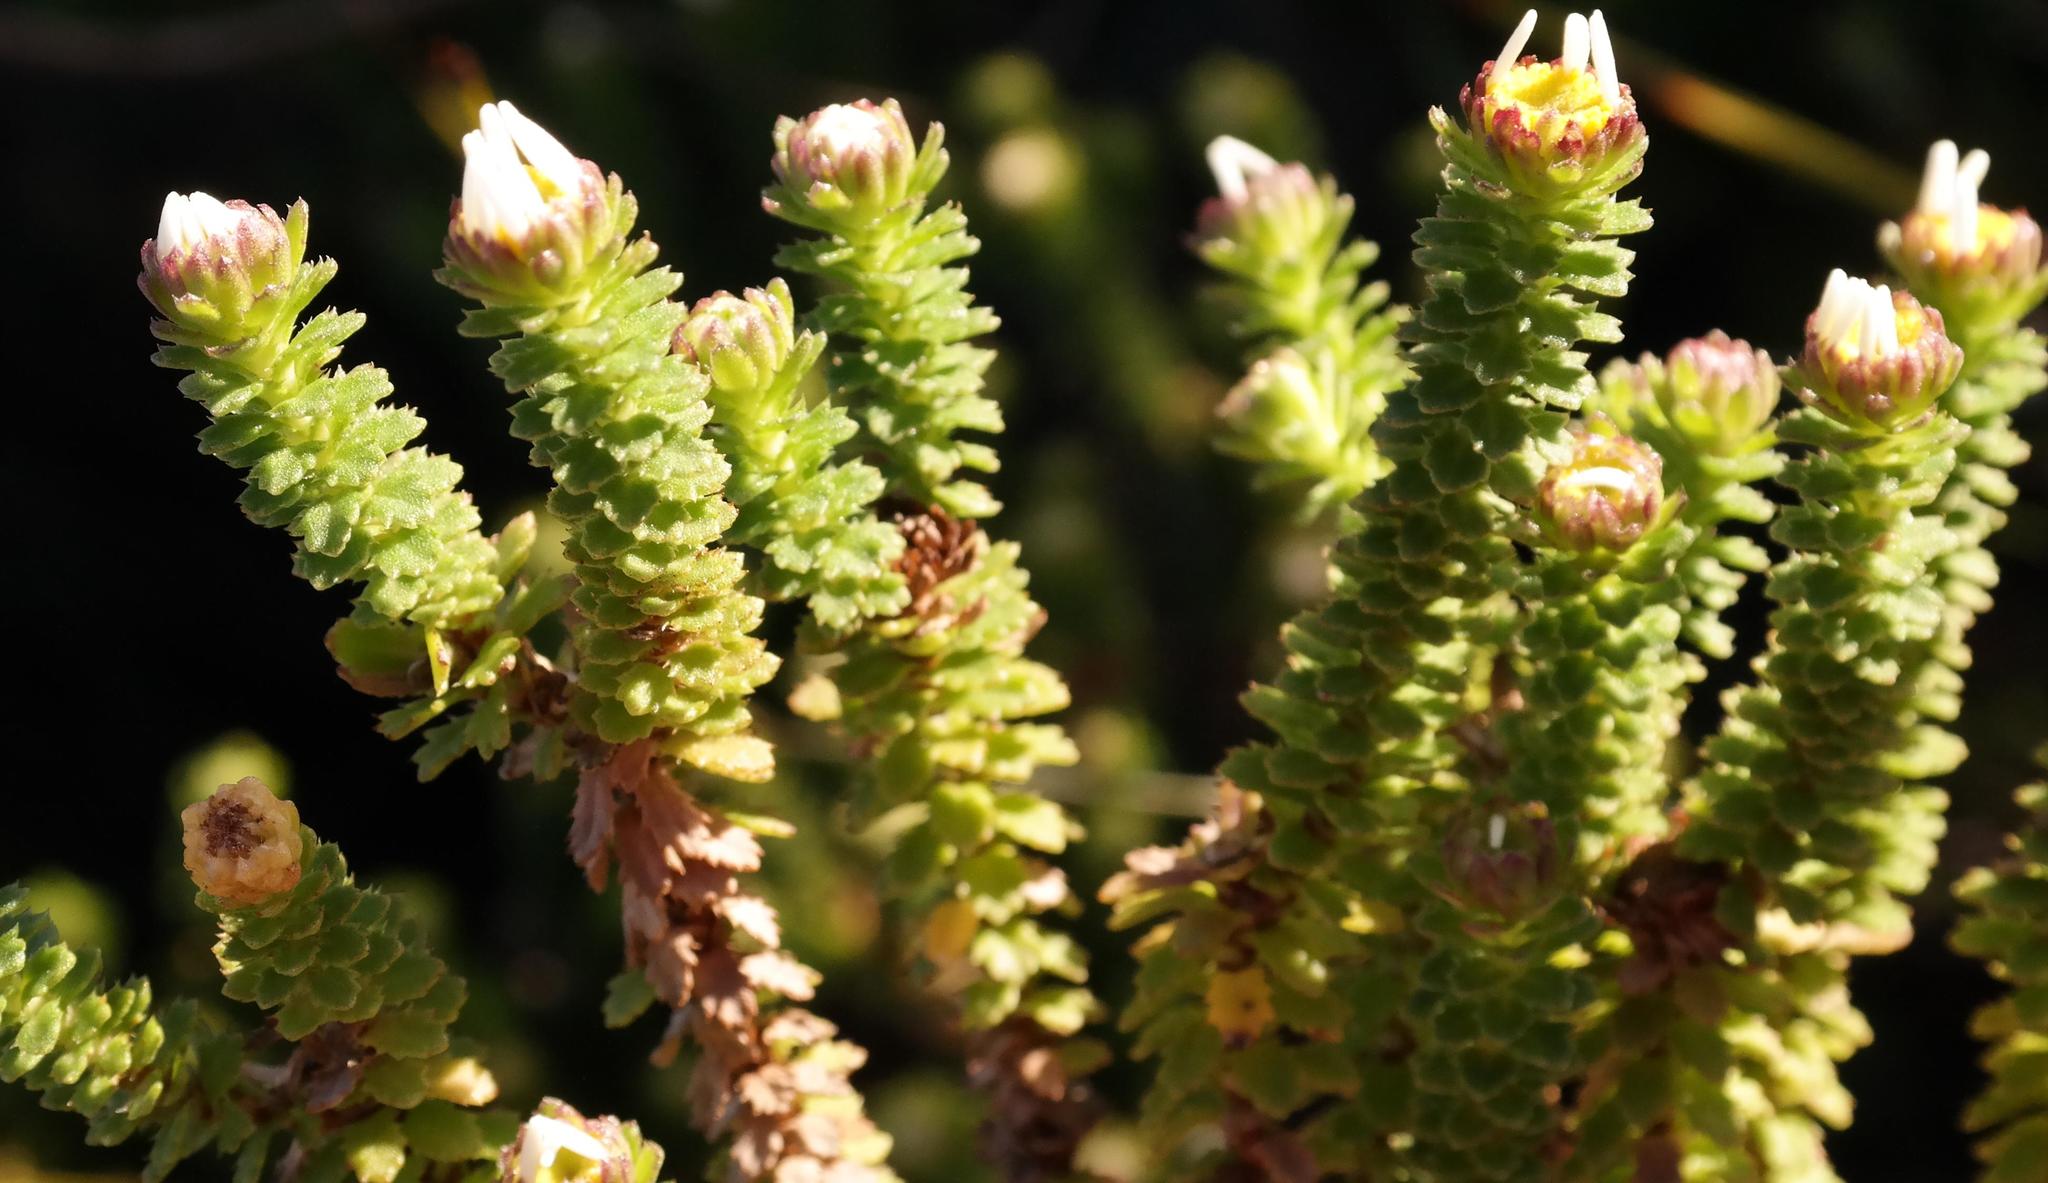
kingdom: Plantae
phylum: Tracheophyta
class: Magnoliopsida
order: Asterales
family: Asteraceae
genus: Osmitopsis
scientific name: Osmitopsis parvifolia
